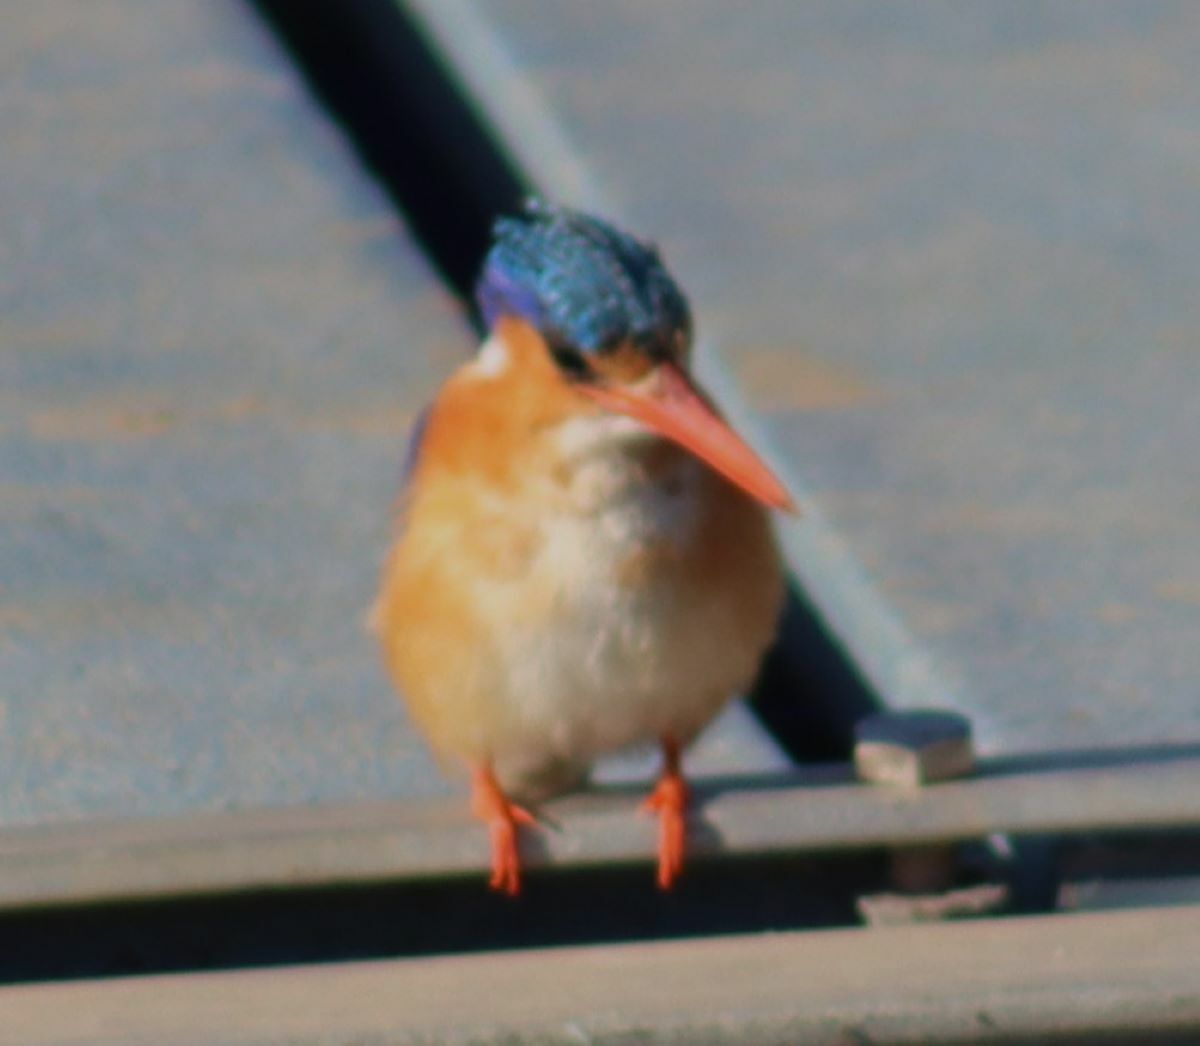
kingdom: Animalia
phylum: Chordata
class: Aves
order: Coraciiformes
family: Alcedinidae
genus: Corythornis
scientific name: Corythornis cristatus
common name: Malachite kingfisher
